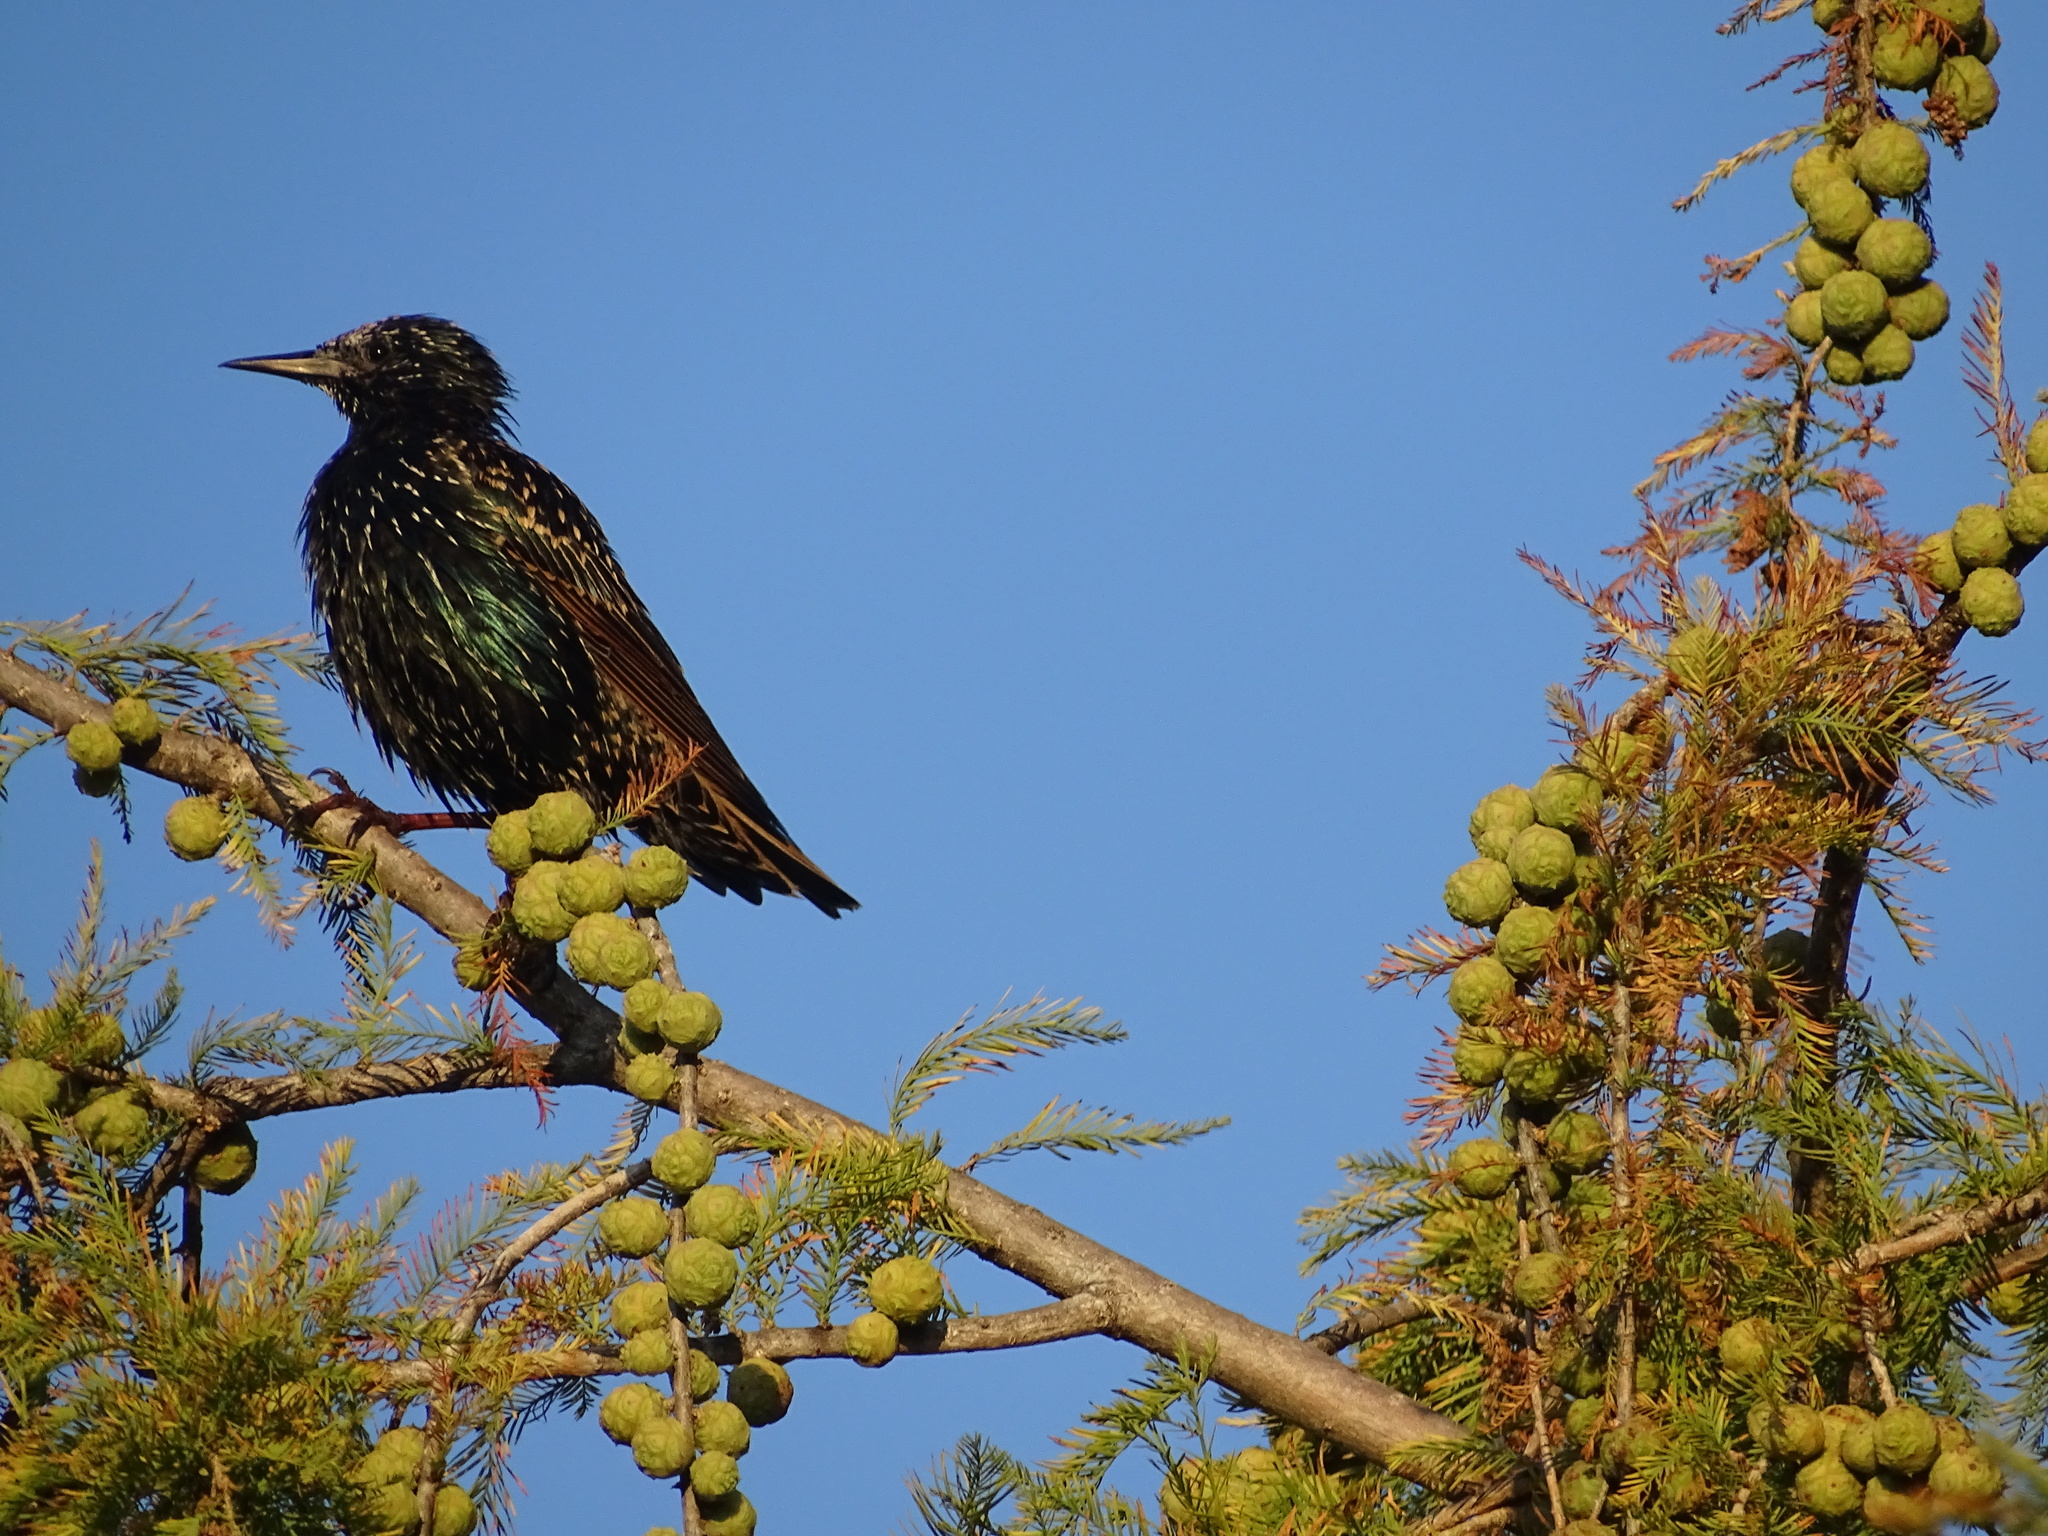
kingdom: Animalia
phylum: Chordata
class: Aves
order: Passeriformes
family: Sturnidae
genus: Sturnus
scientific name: Sturnus vulgaris
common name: Common starling
